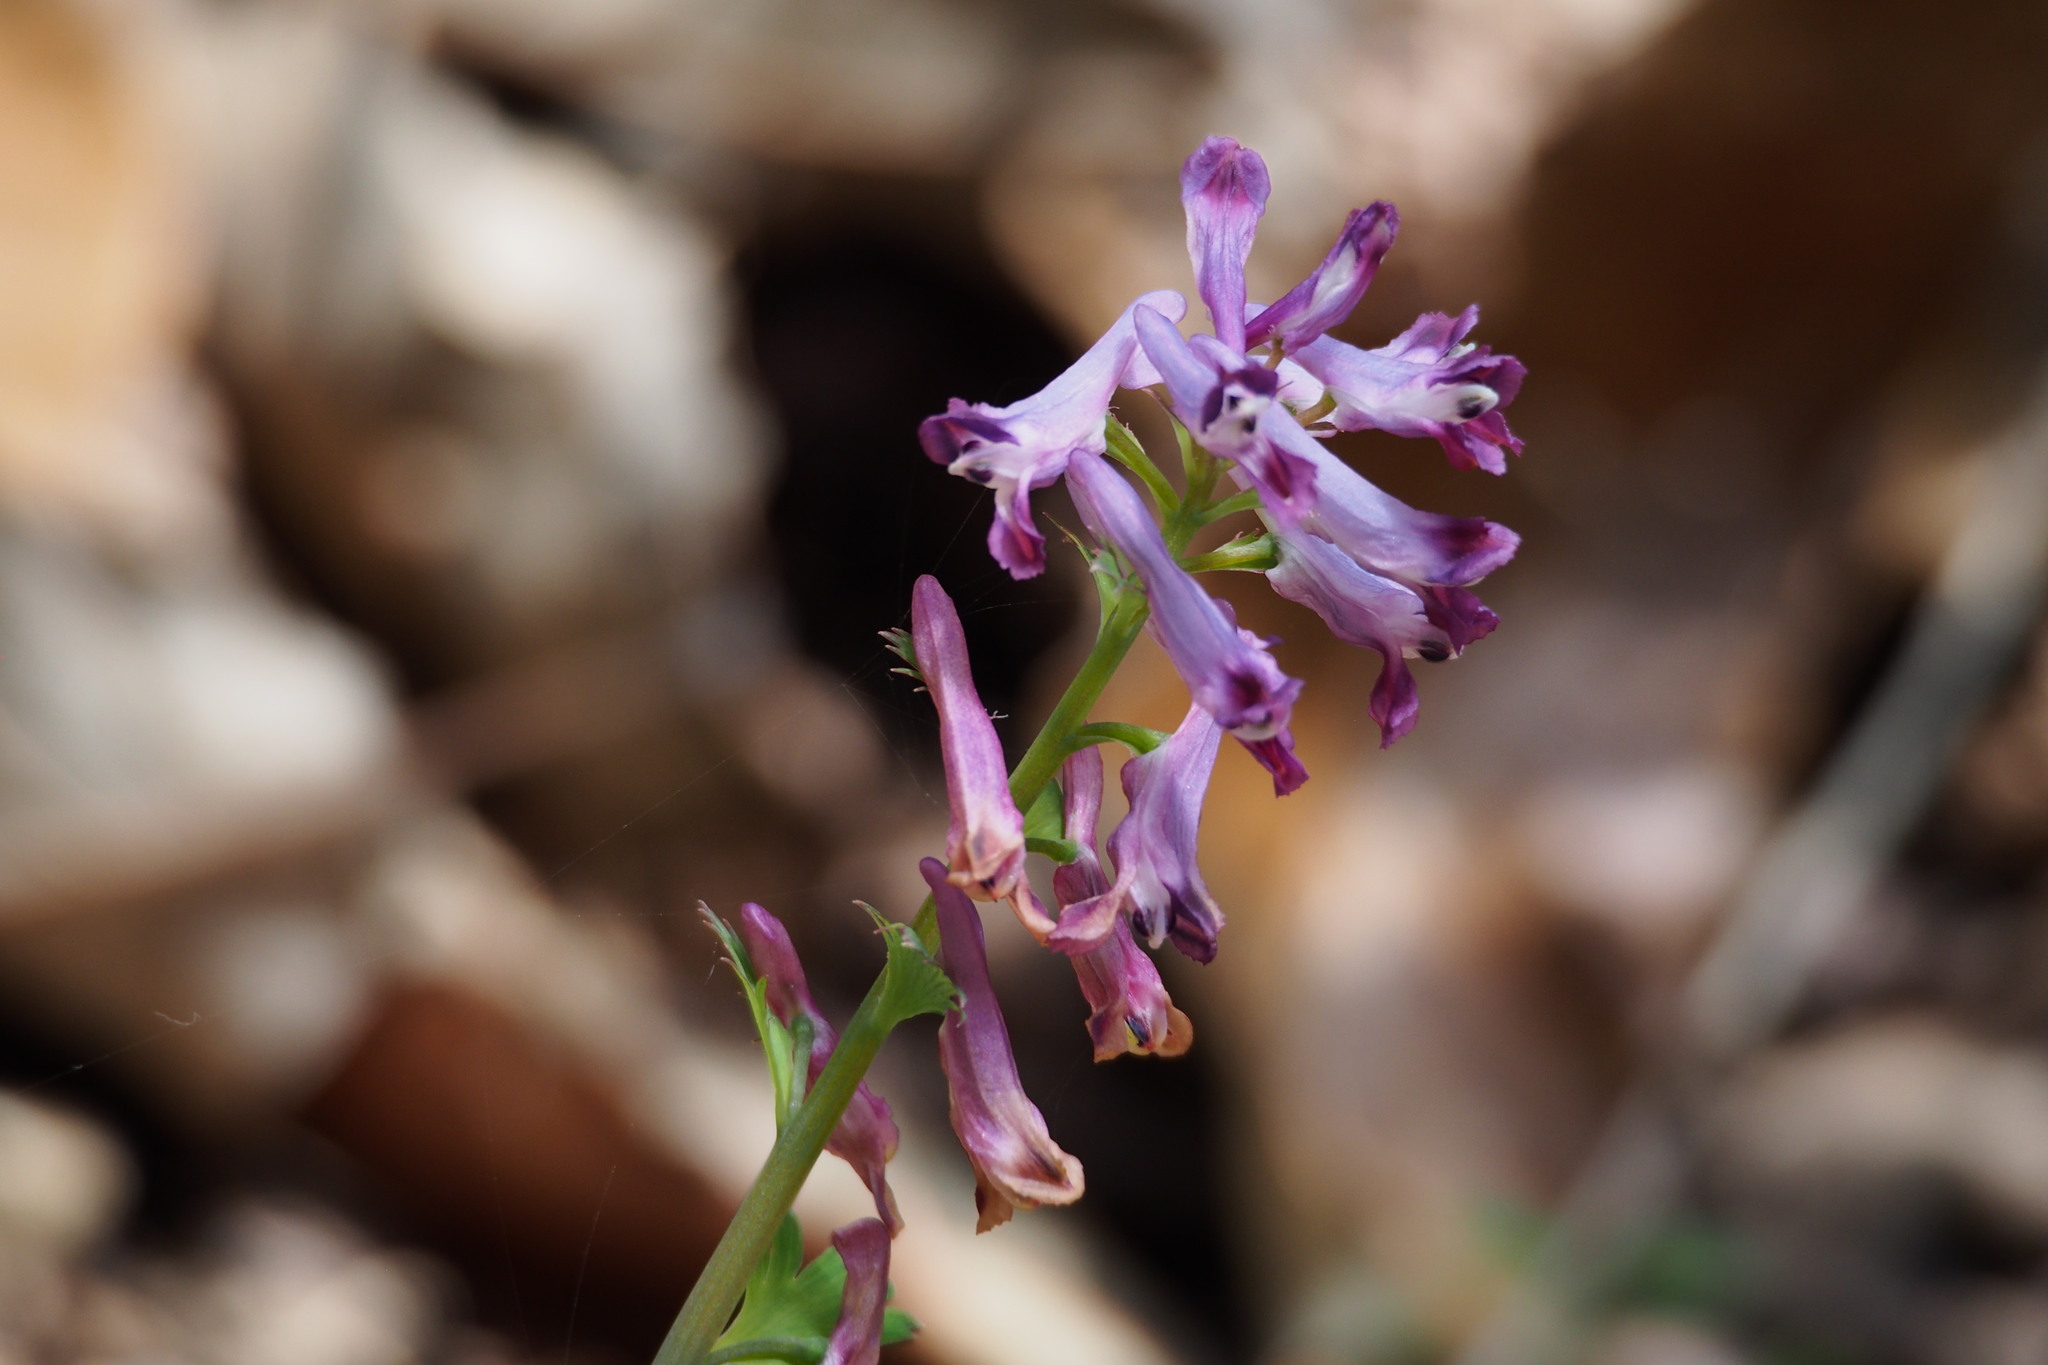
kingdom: Plantae
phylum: Tracheophyta
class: Magnoliopsida
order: Ranunculales
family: Papaveraceae
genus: Corydalis
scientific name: Corydalis incisa
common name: Incised fumewort
